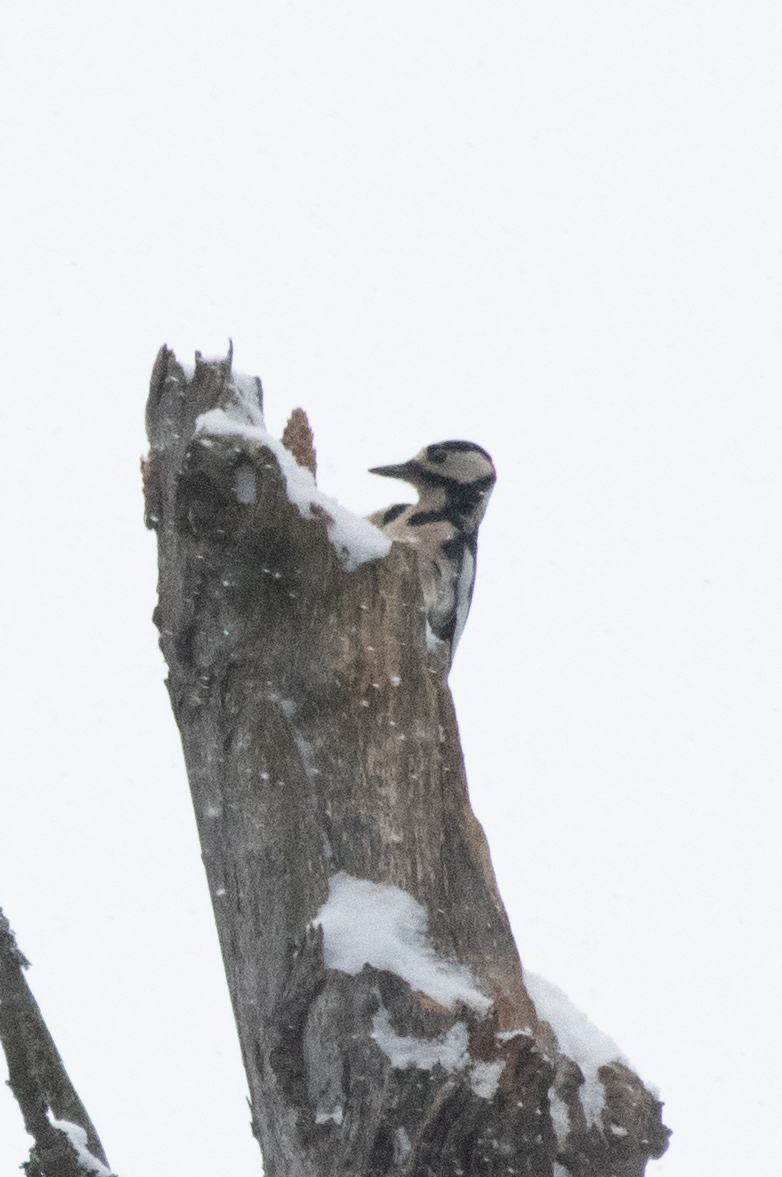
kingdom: Animalia
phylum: Chordata
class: Aves
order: Piciformes
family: Picidae
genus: Dendrocopos
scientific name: Dendrocopos major
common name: Great spotted woodpecker
